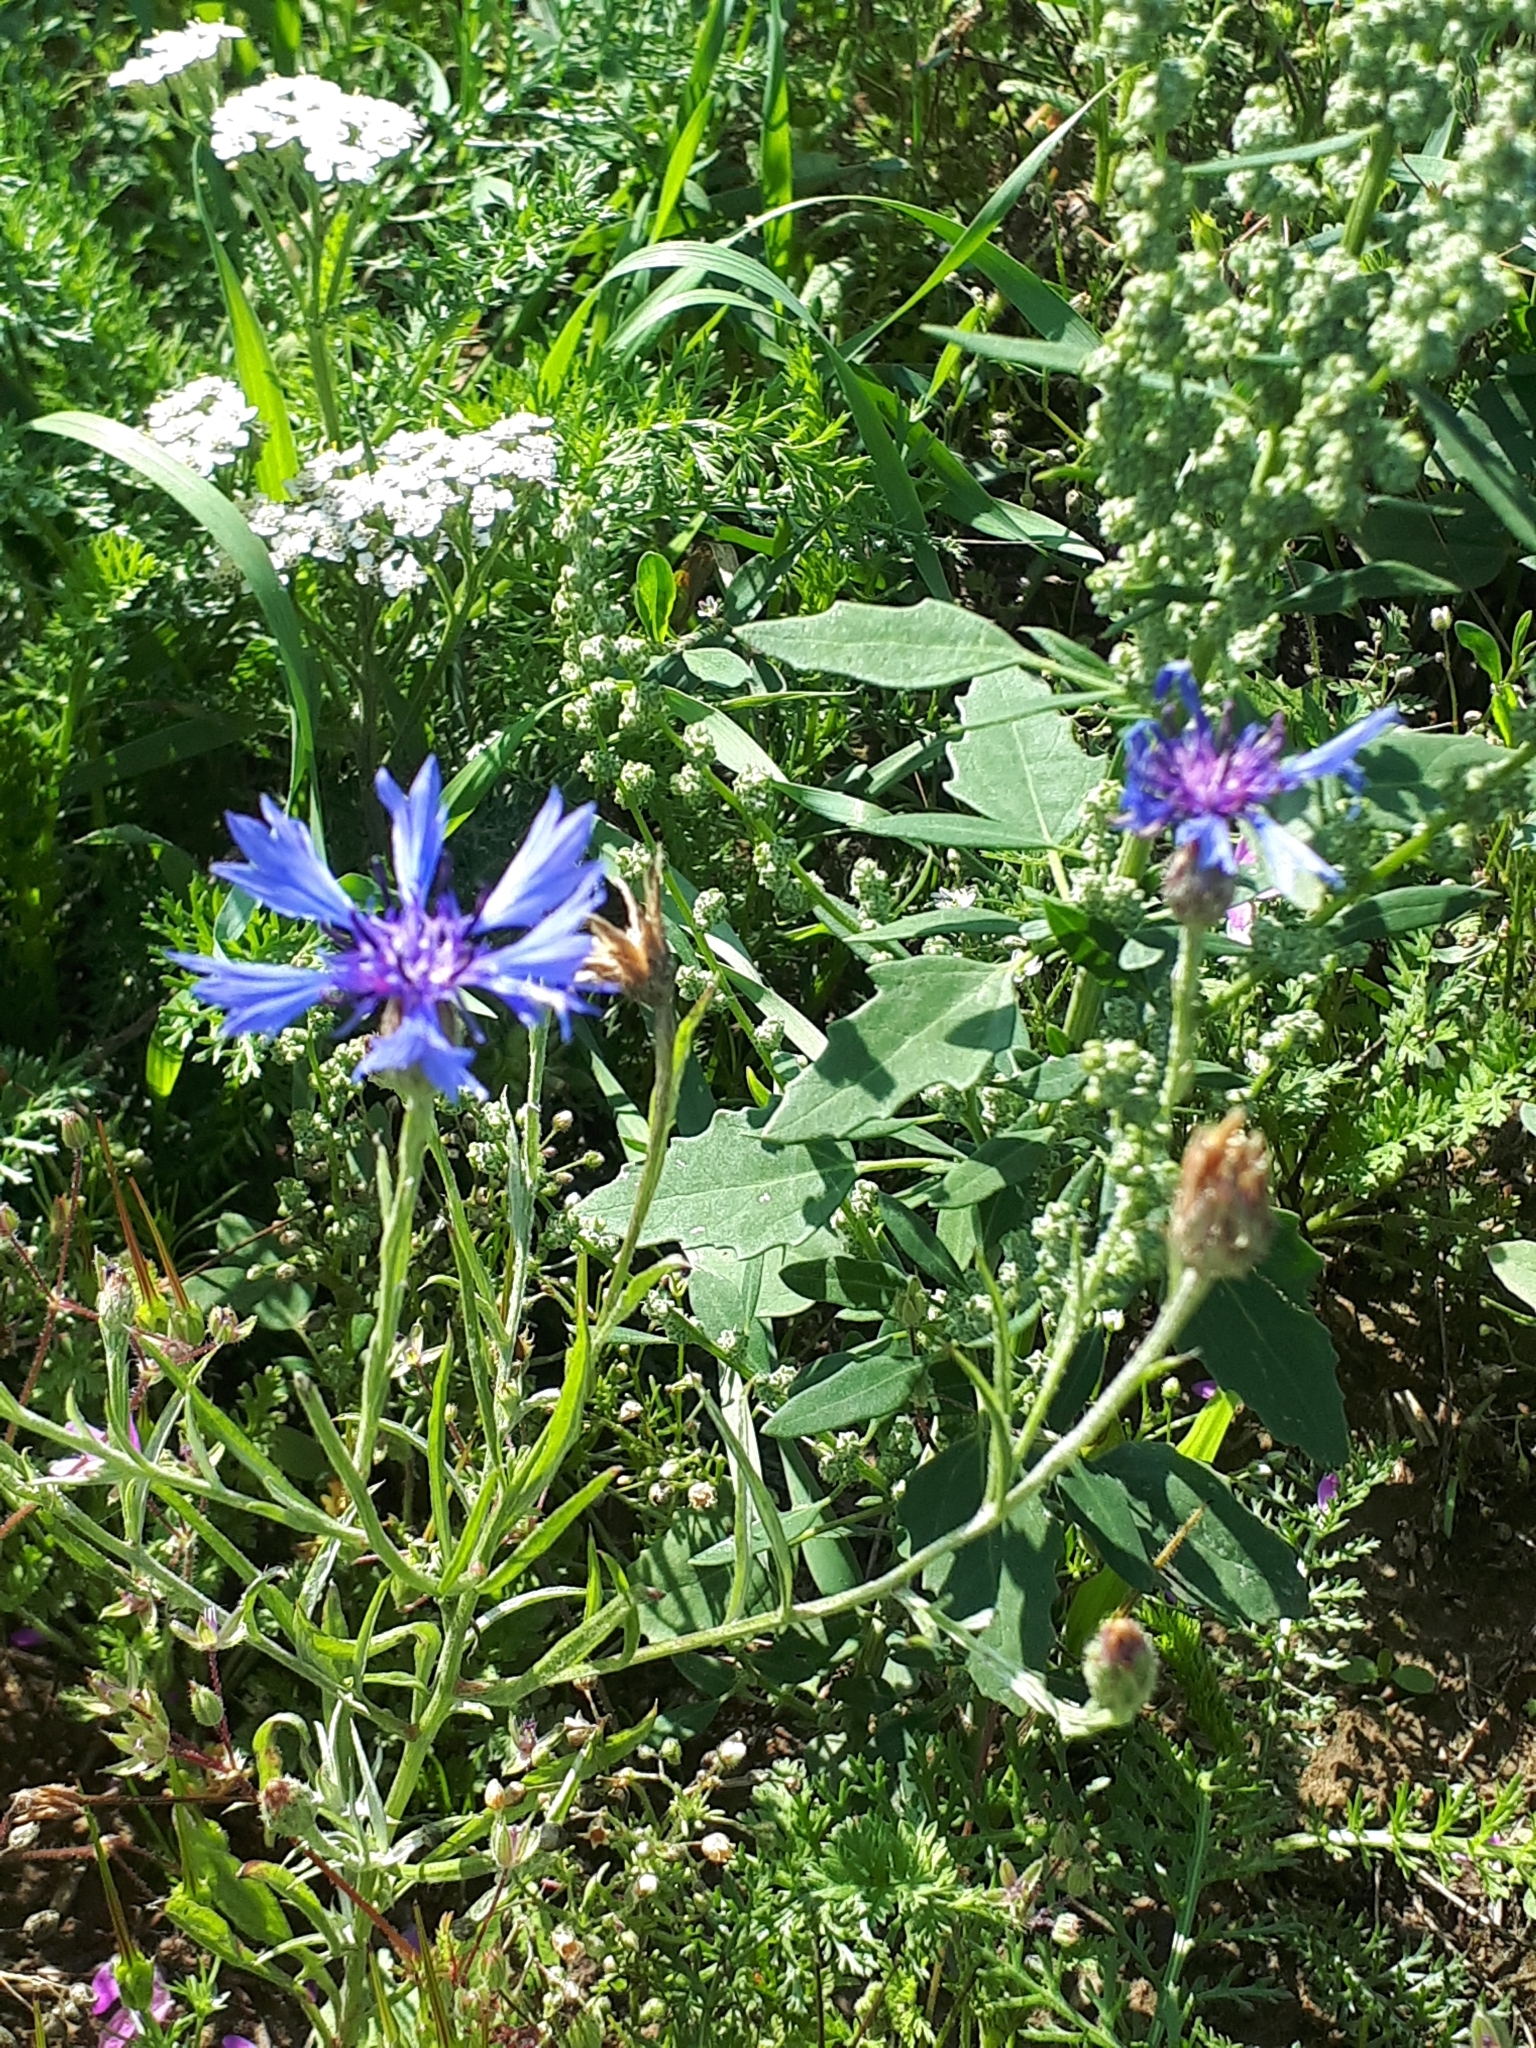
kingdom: Plantae
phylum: Tracheophyta
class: Magnoliopsida
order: Asterales
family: Asteraceae
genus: Centaurea
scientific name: Centaurea cyanus
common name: Cornflower
